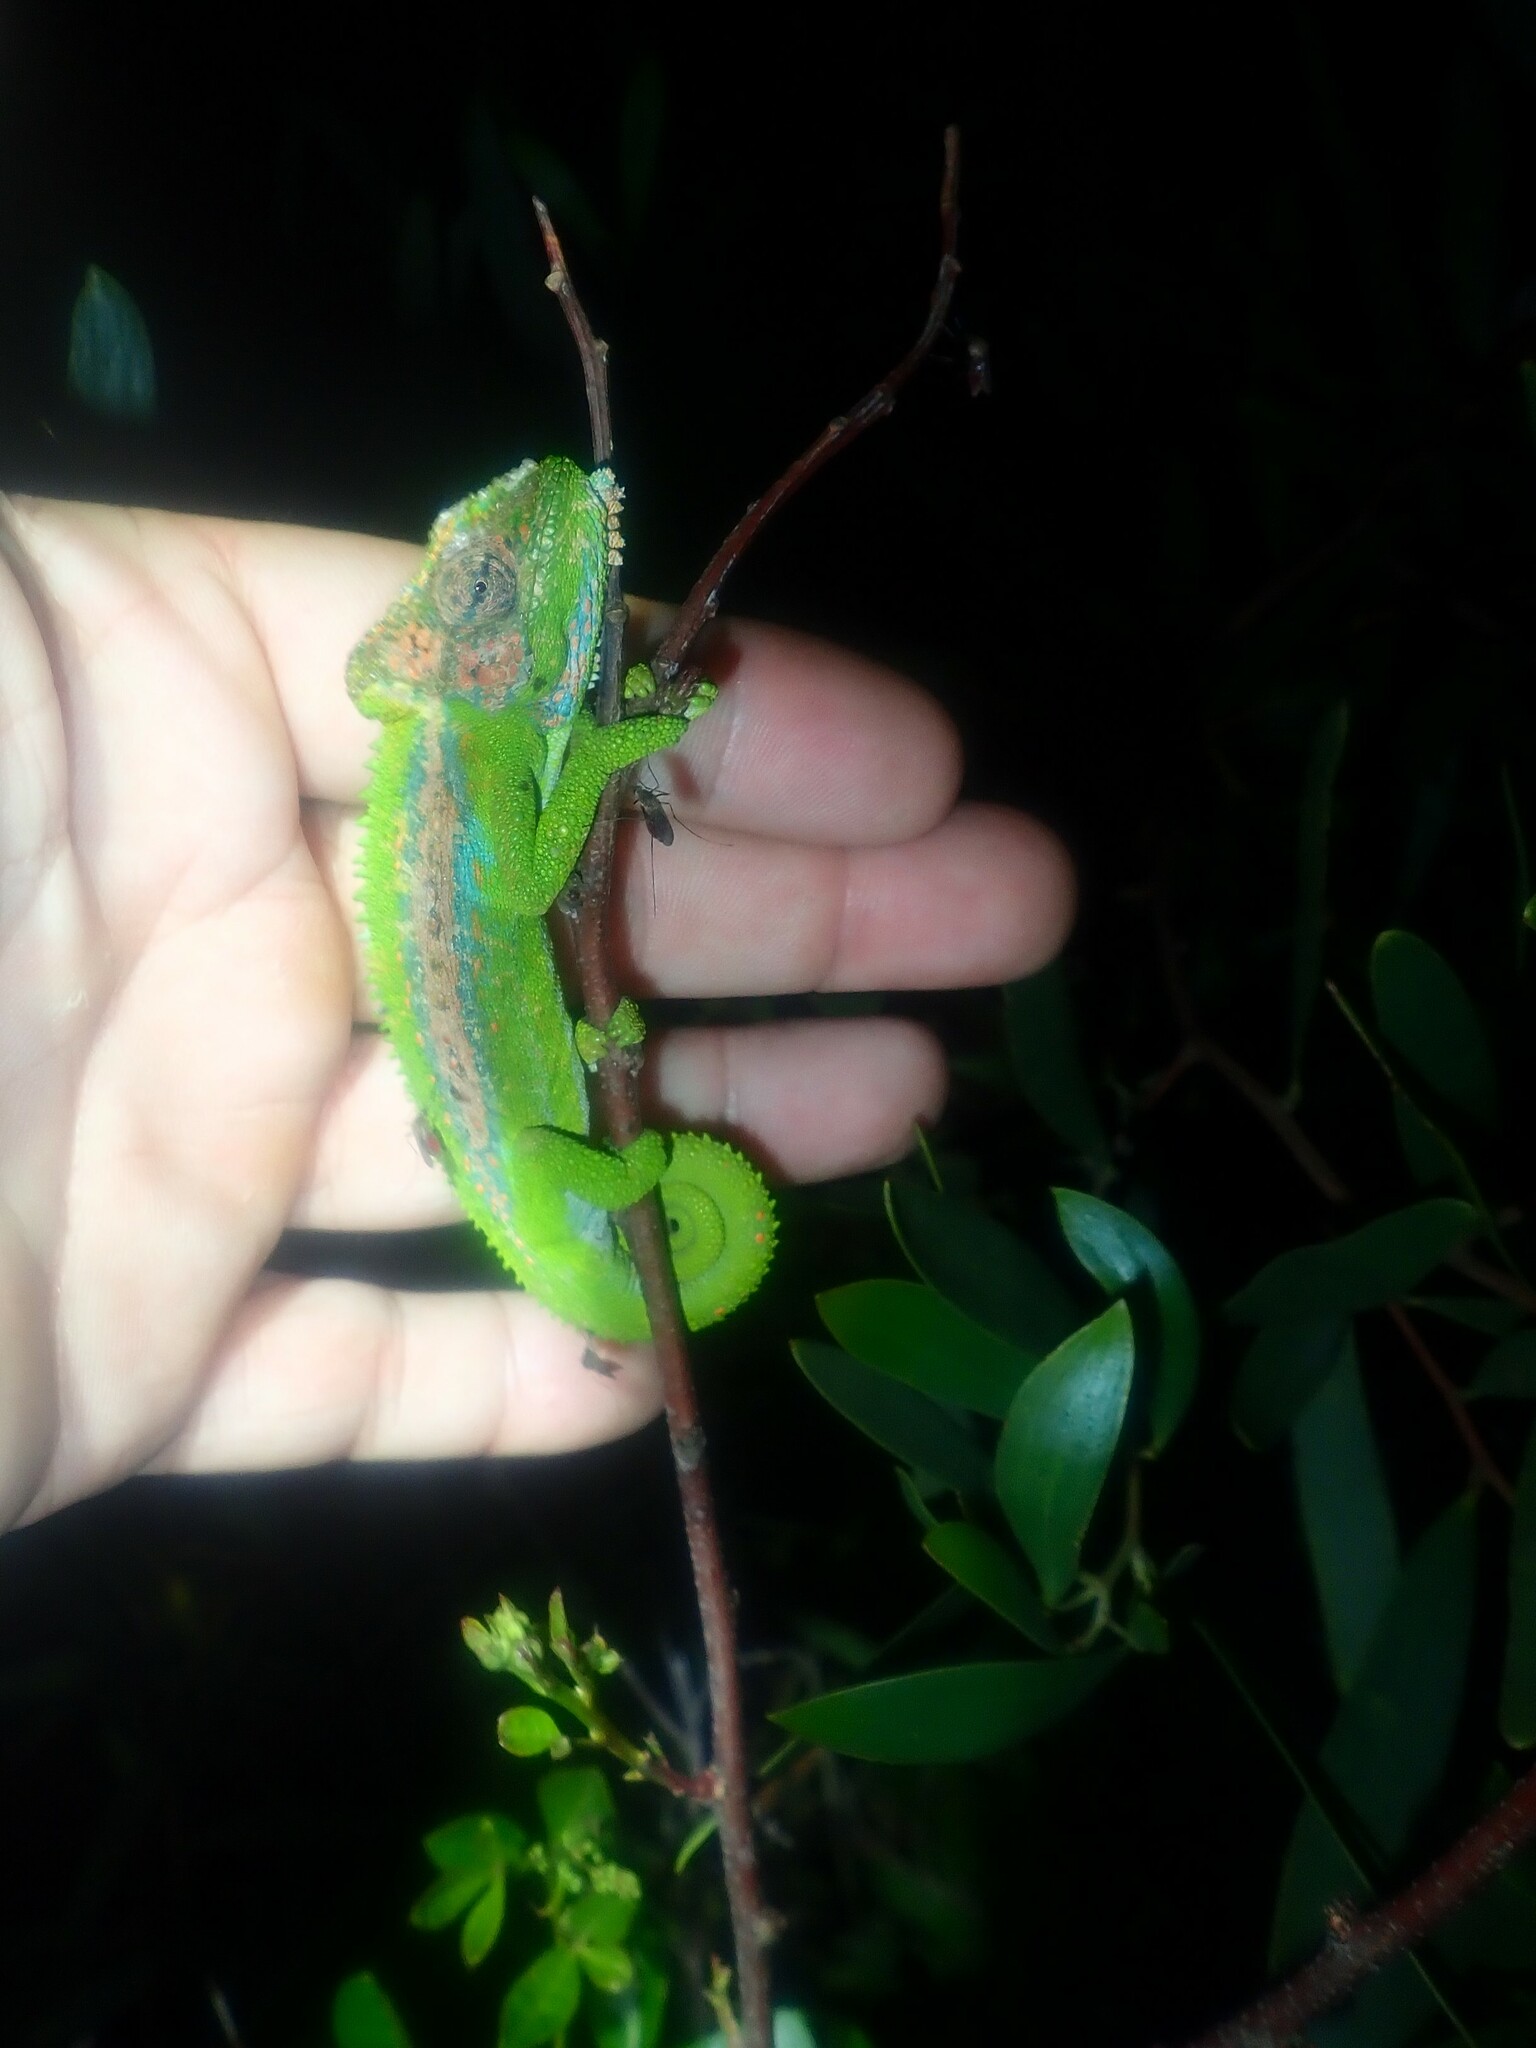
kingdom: Animalia
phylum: Chordata
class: Squamata
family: Chamaeleonidae
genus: Bradypodion
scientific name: Bradypodion pumilum
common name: Cape dwarf chameleon
